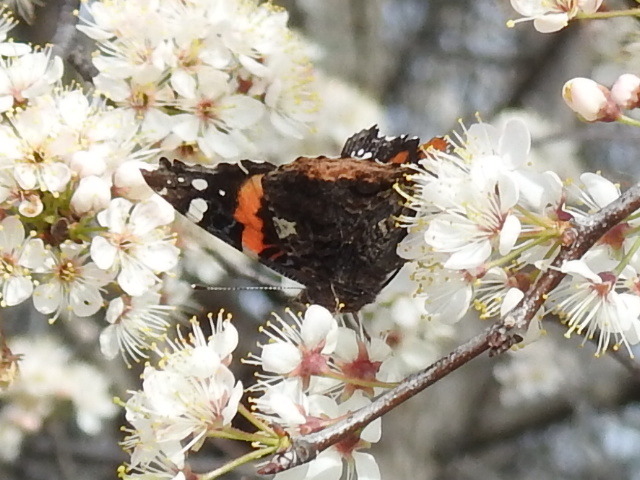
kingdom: Animalia
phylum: Arthropoda
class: Insecta
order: Lepidoptera
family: Nymphalidae
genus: Vanessa
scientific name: Vanessa atalanta
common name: Red admiral
